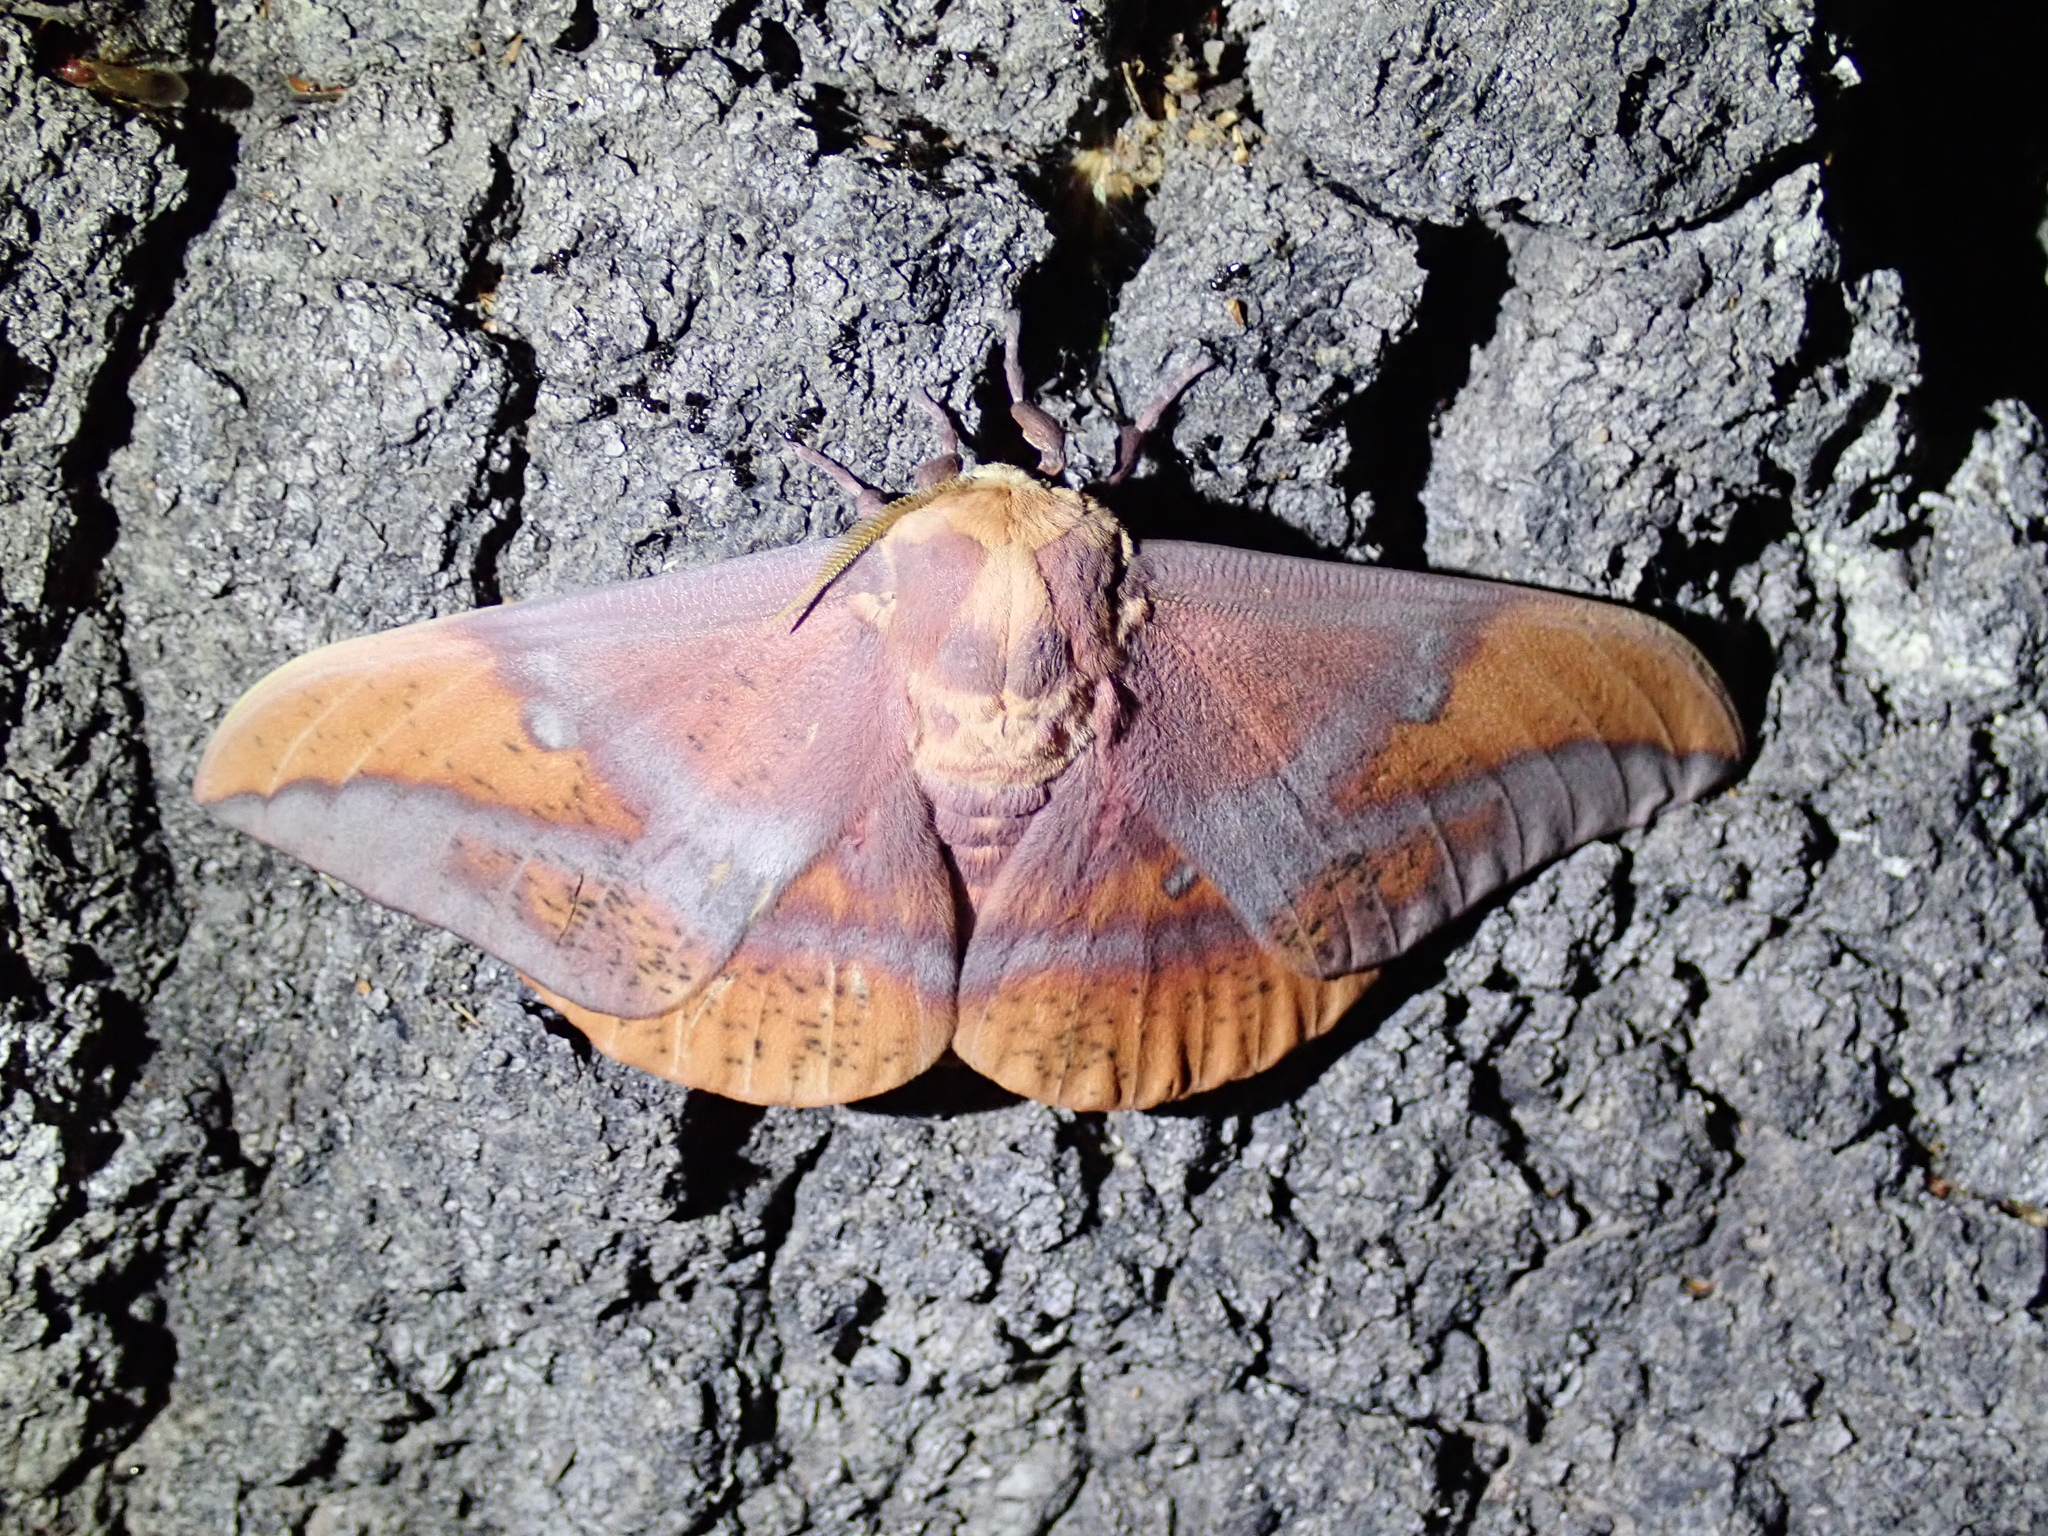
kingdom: Animalia
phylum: Arthropoda
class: Insecta
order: Lepidoptera
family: Saturniidae
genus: Eacles
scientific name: Eacles oslari
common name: Oslar's imperial moth
